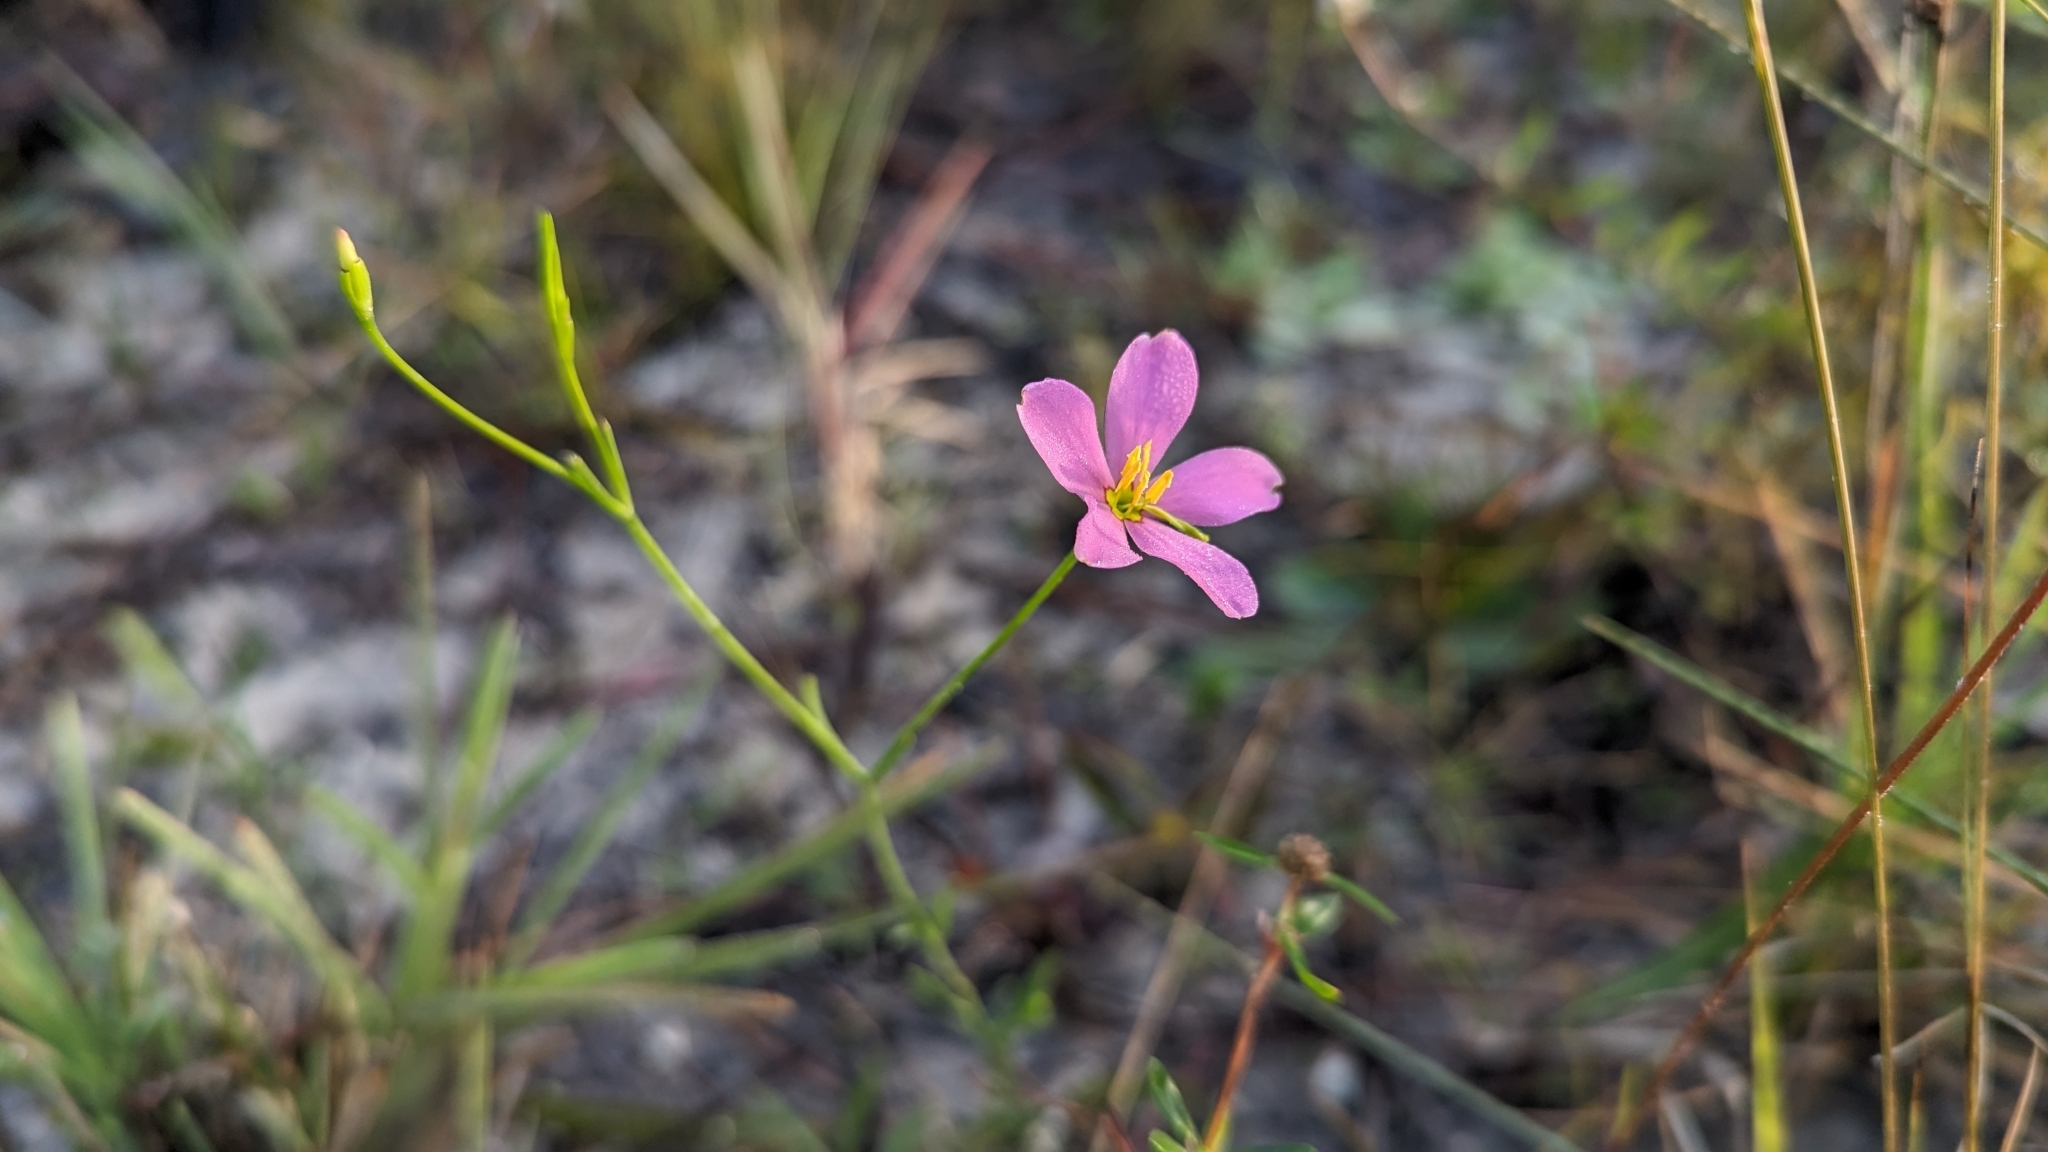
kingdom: Plantae
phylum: Tracheophyta
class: Magnoliopsida
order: Gentianales
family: Gentianaceae
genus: Sabatia
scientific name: Sabatia stellaris
